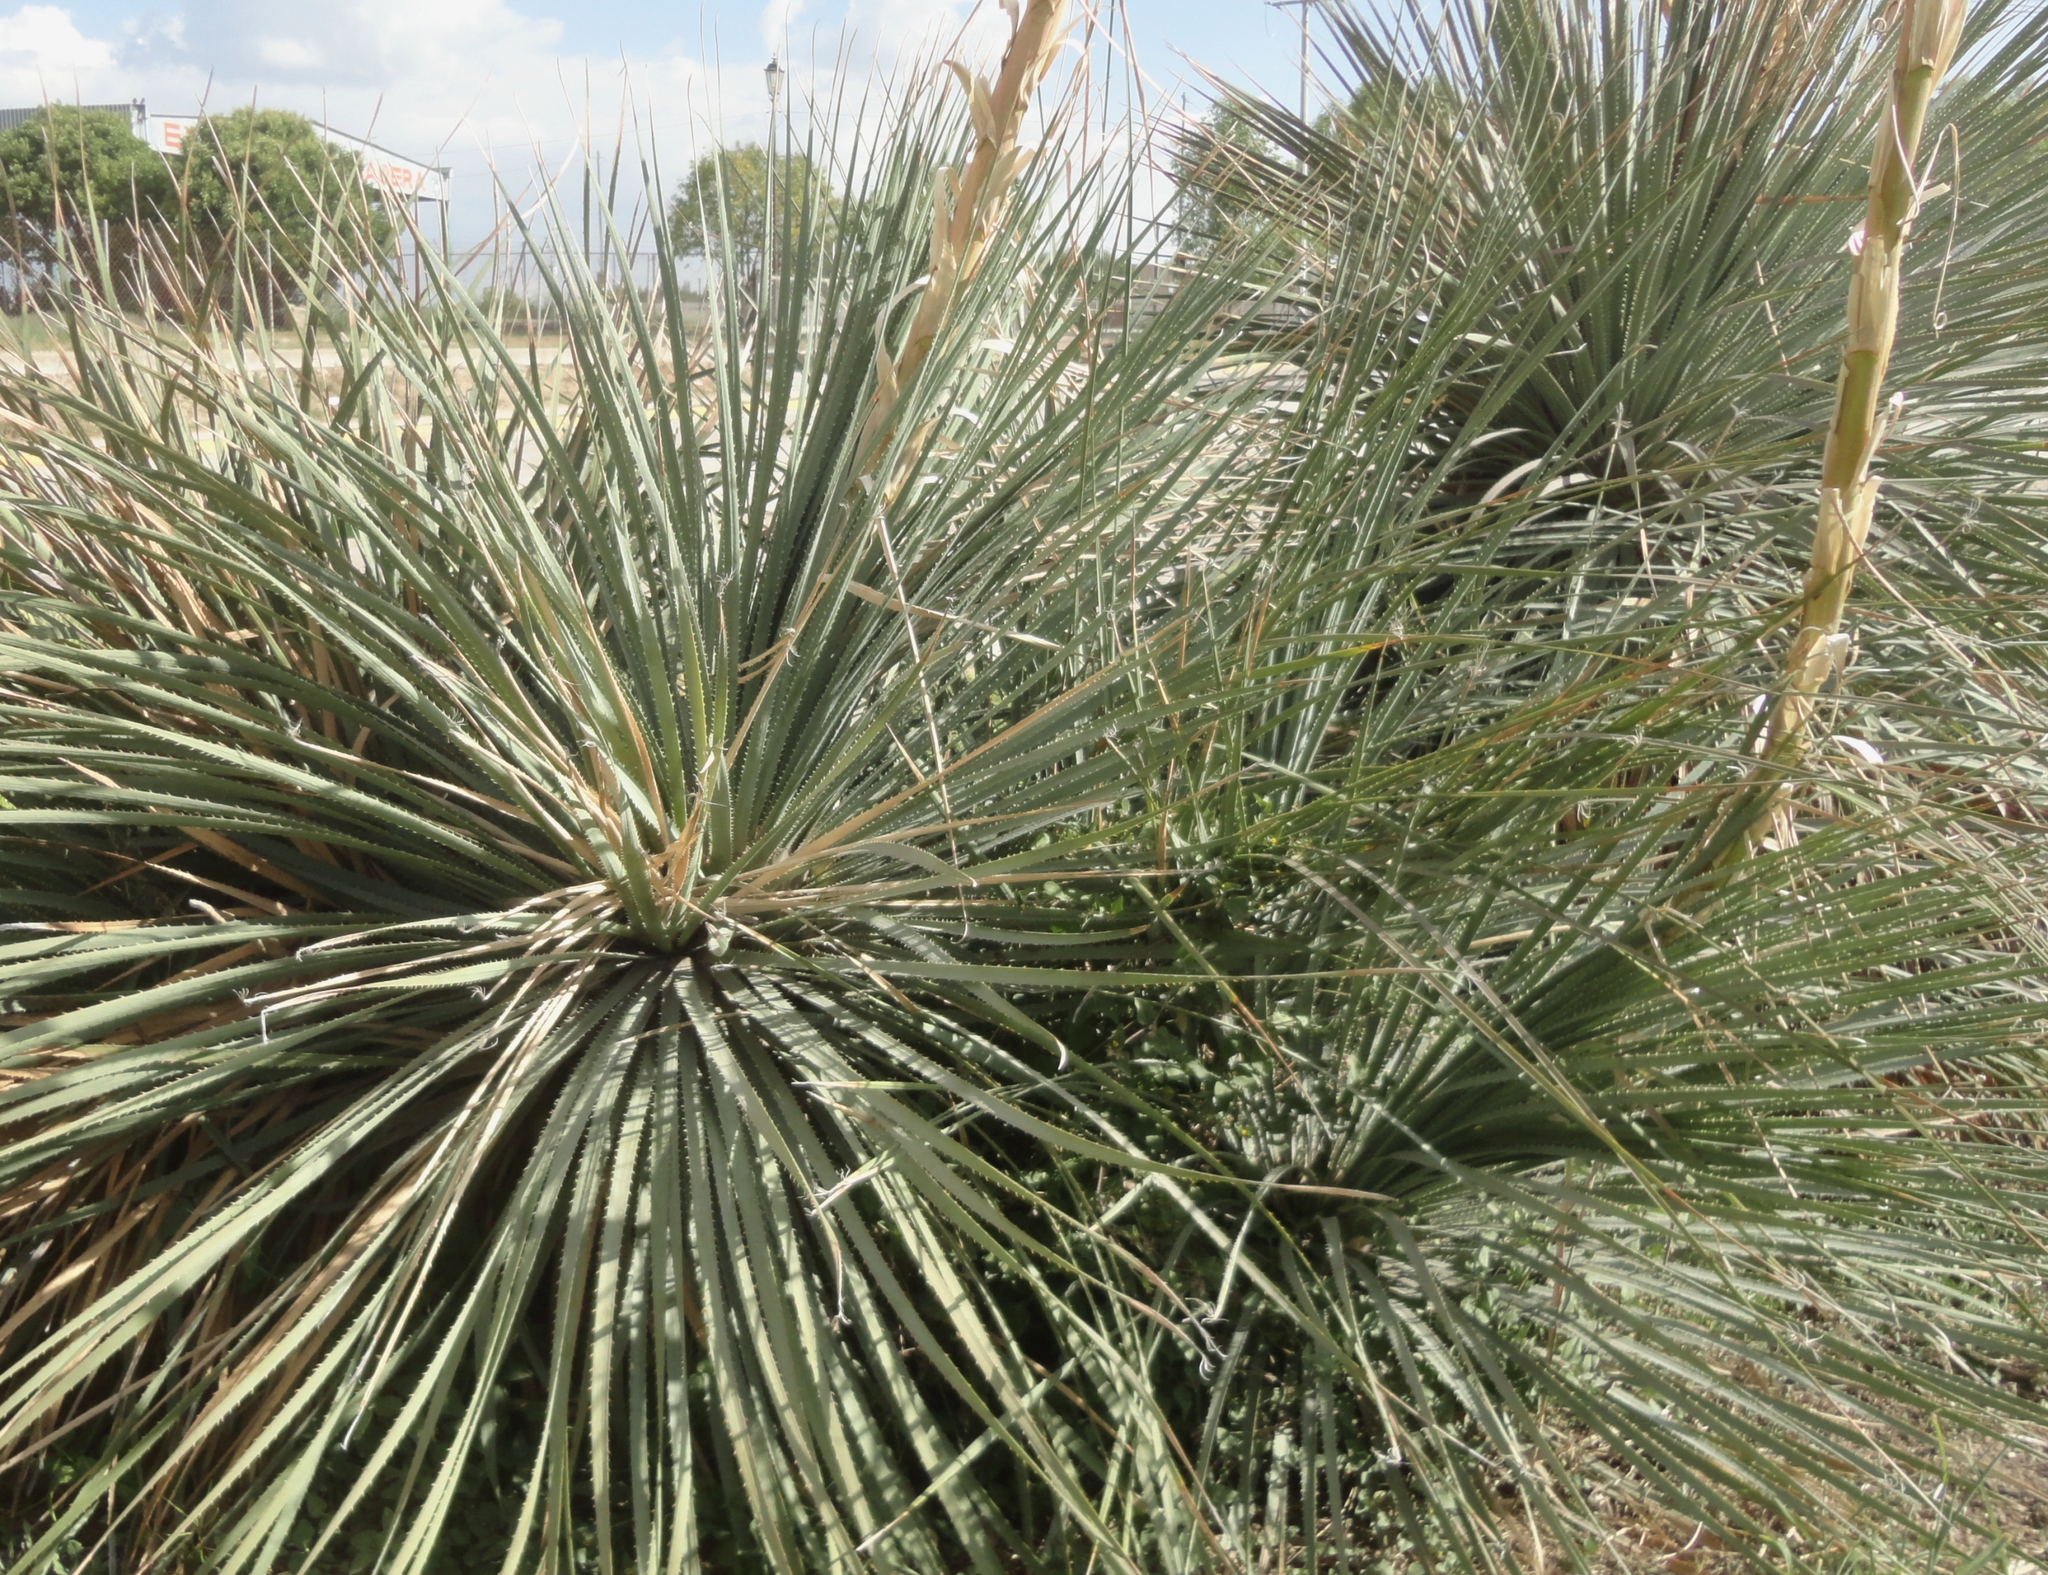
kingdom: Plantae
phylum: Tracheophyta
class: Liliopsida
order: Asparagales
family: Asparagaceae
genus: Dasylirion
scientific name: Dasylirion parryanum
